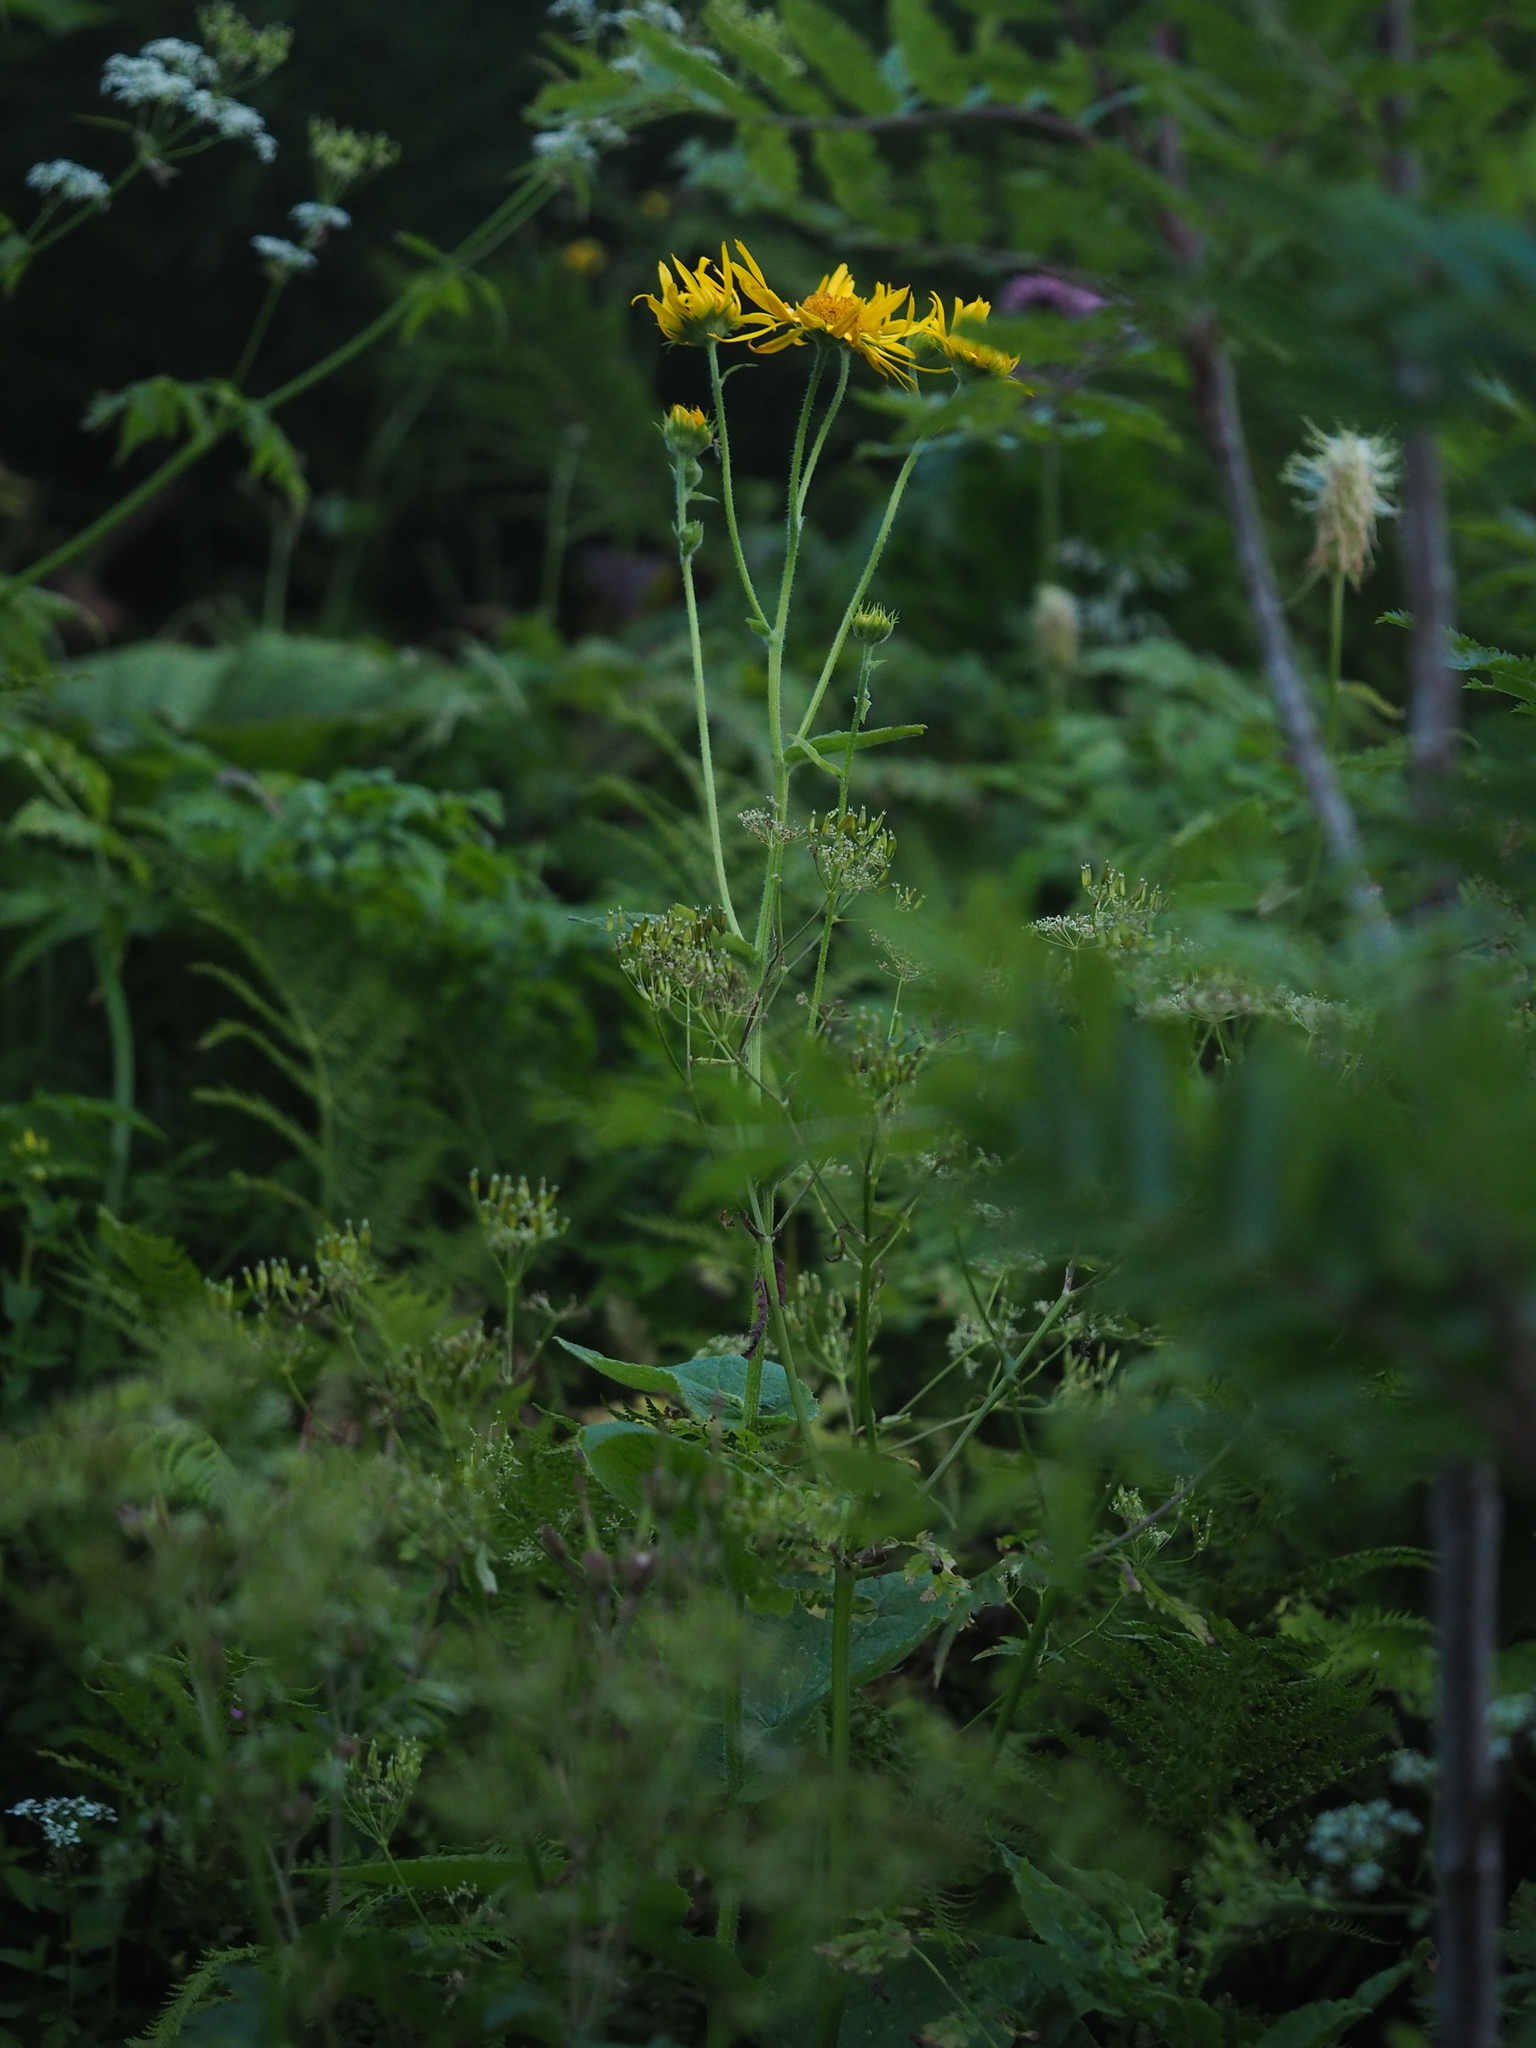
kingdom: Plantae
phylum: Tracheophyta
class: Magnoliopsida
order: Asterales
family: Asteraceae
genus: Doronicum
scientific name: Doronicum austriacum
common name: Austrian leopard's-bane
